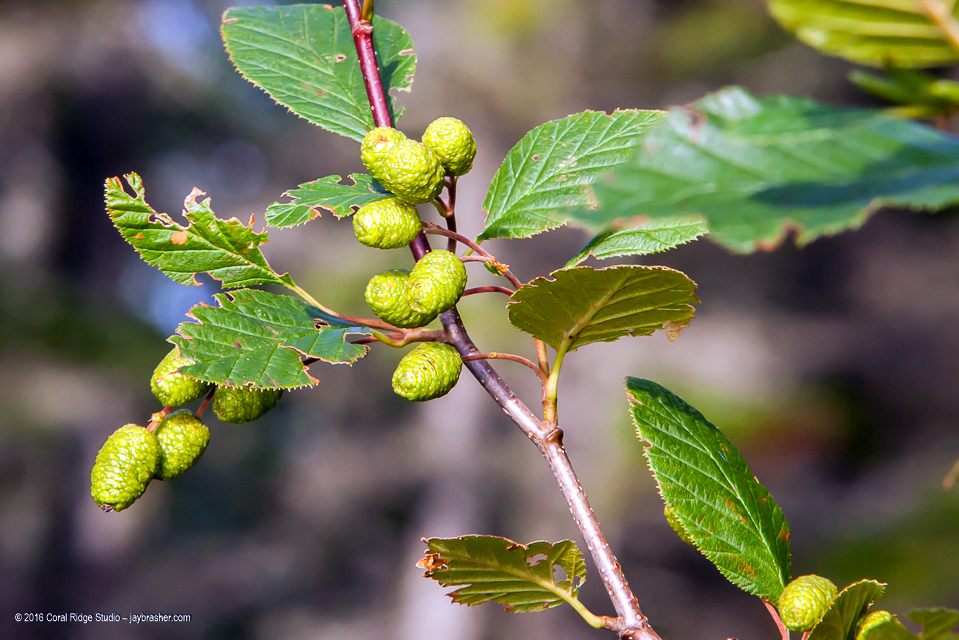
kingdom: Plantae
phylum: Tracheophyta
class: Magnoliopsida
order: Fagales
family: Betulaceae
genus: Alnus
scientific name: Alnus alnobetula
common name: Green alder
